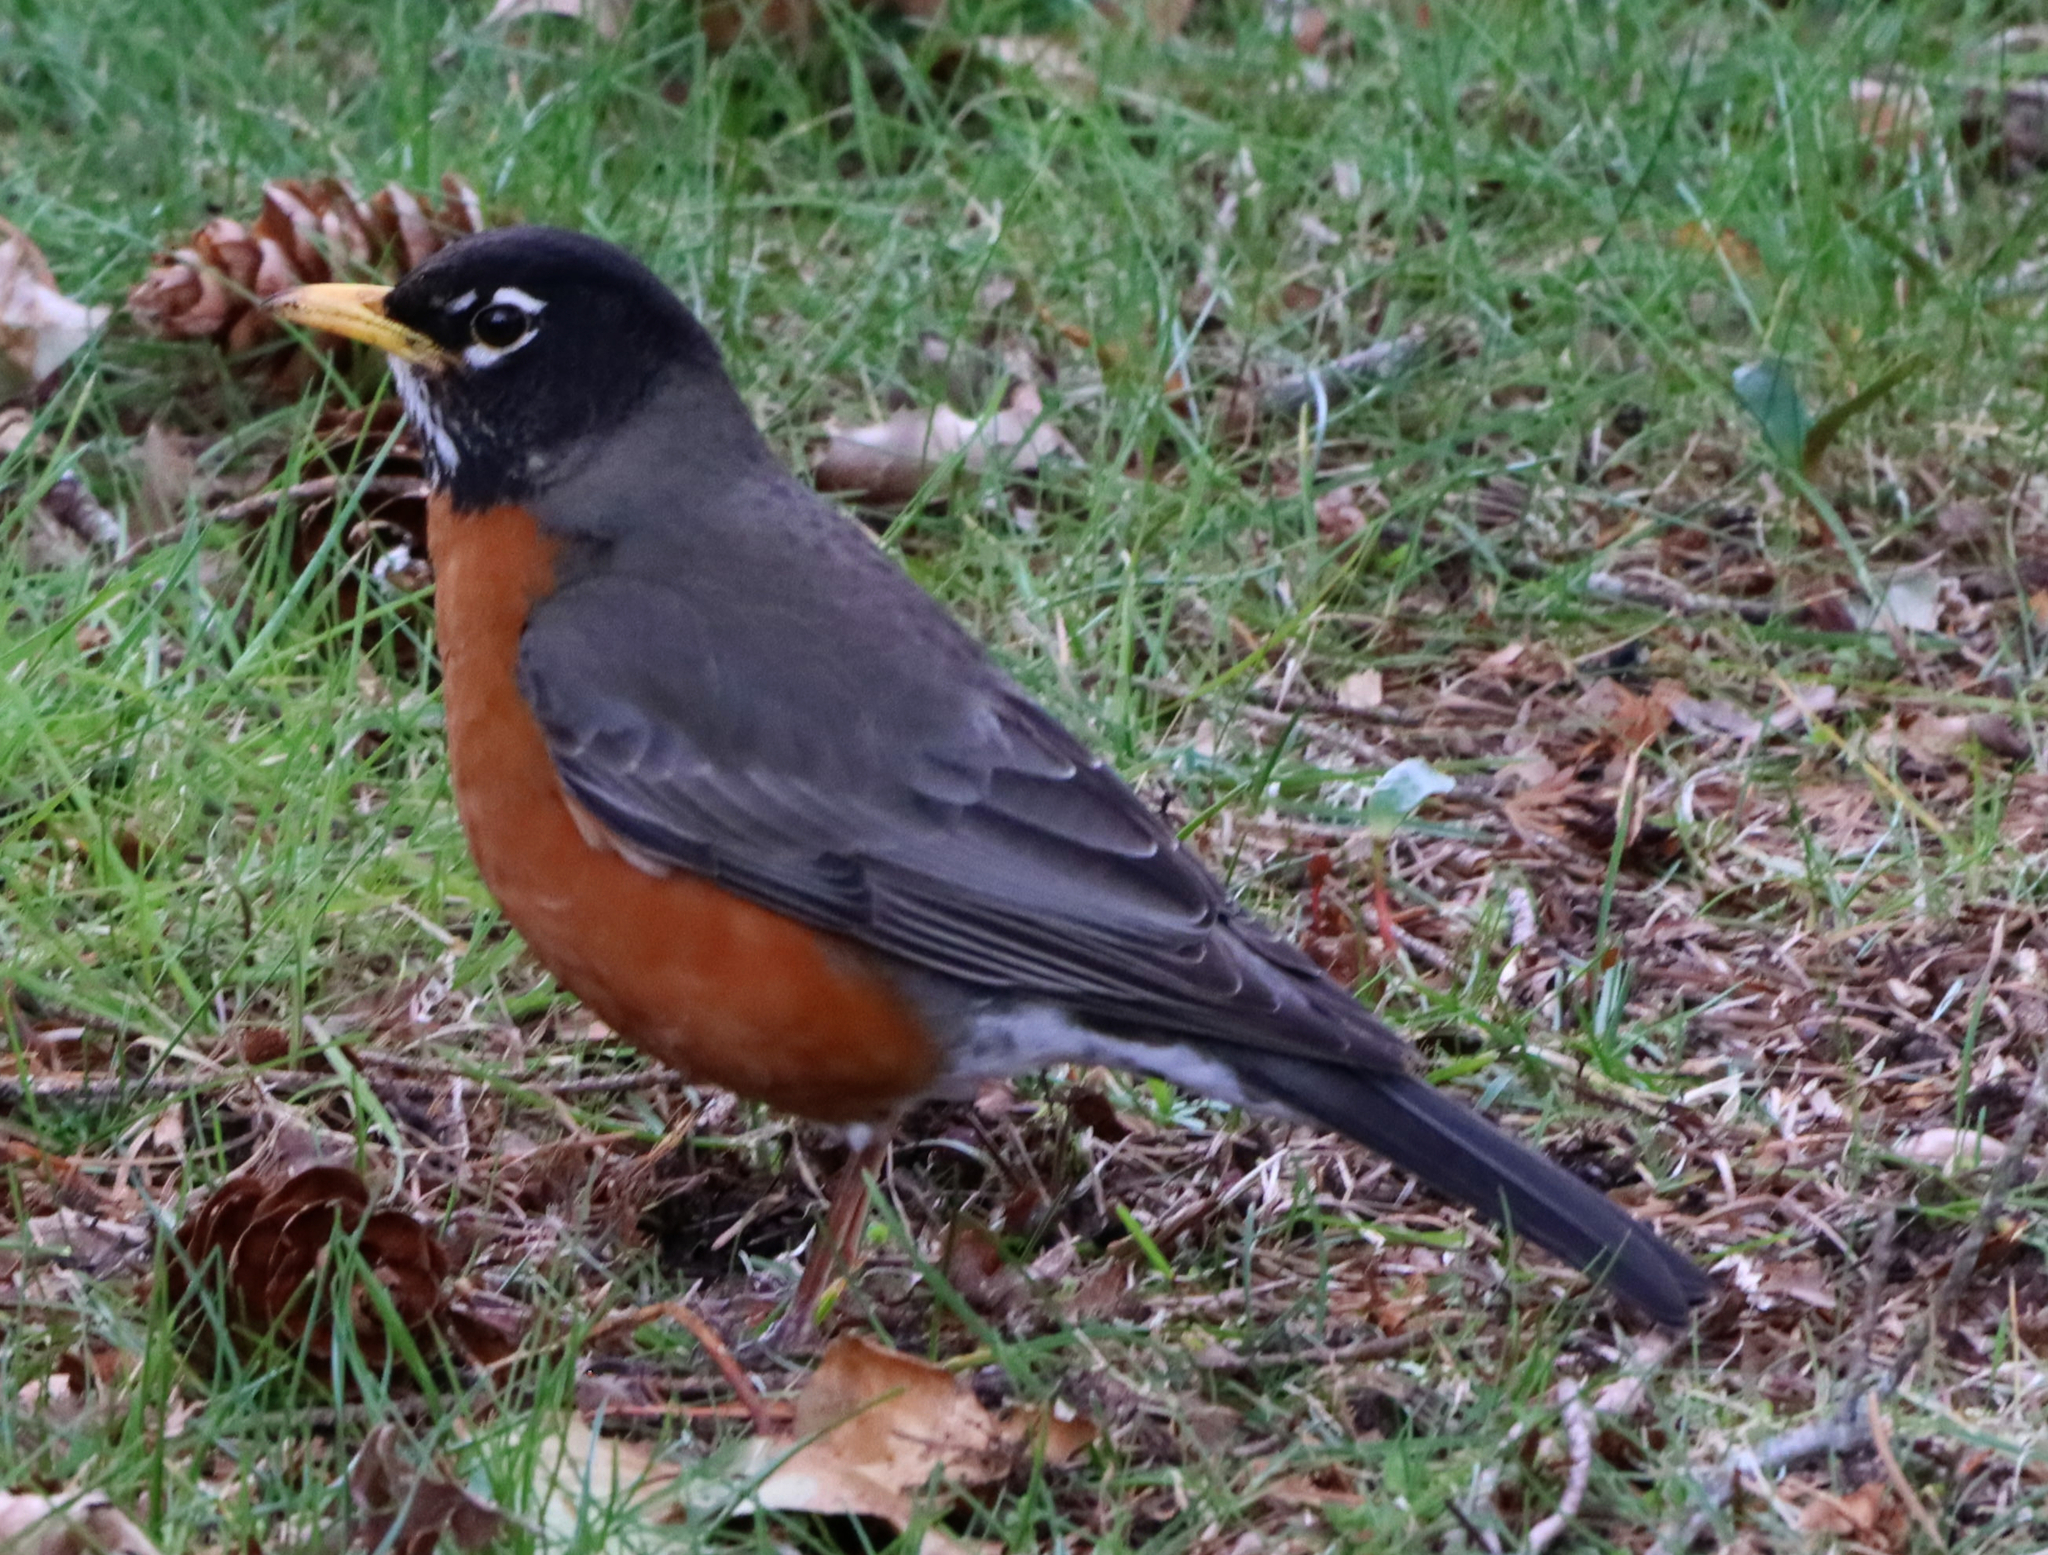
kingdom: Animalia
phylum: Chordata
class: Aves
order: Passeriformes
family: Turdidae
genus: Turdus
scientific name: Turdus migratorius
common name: American robin
